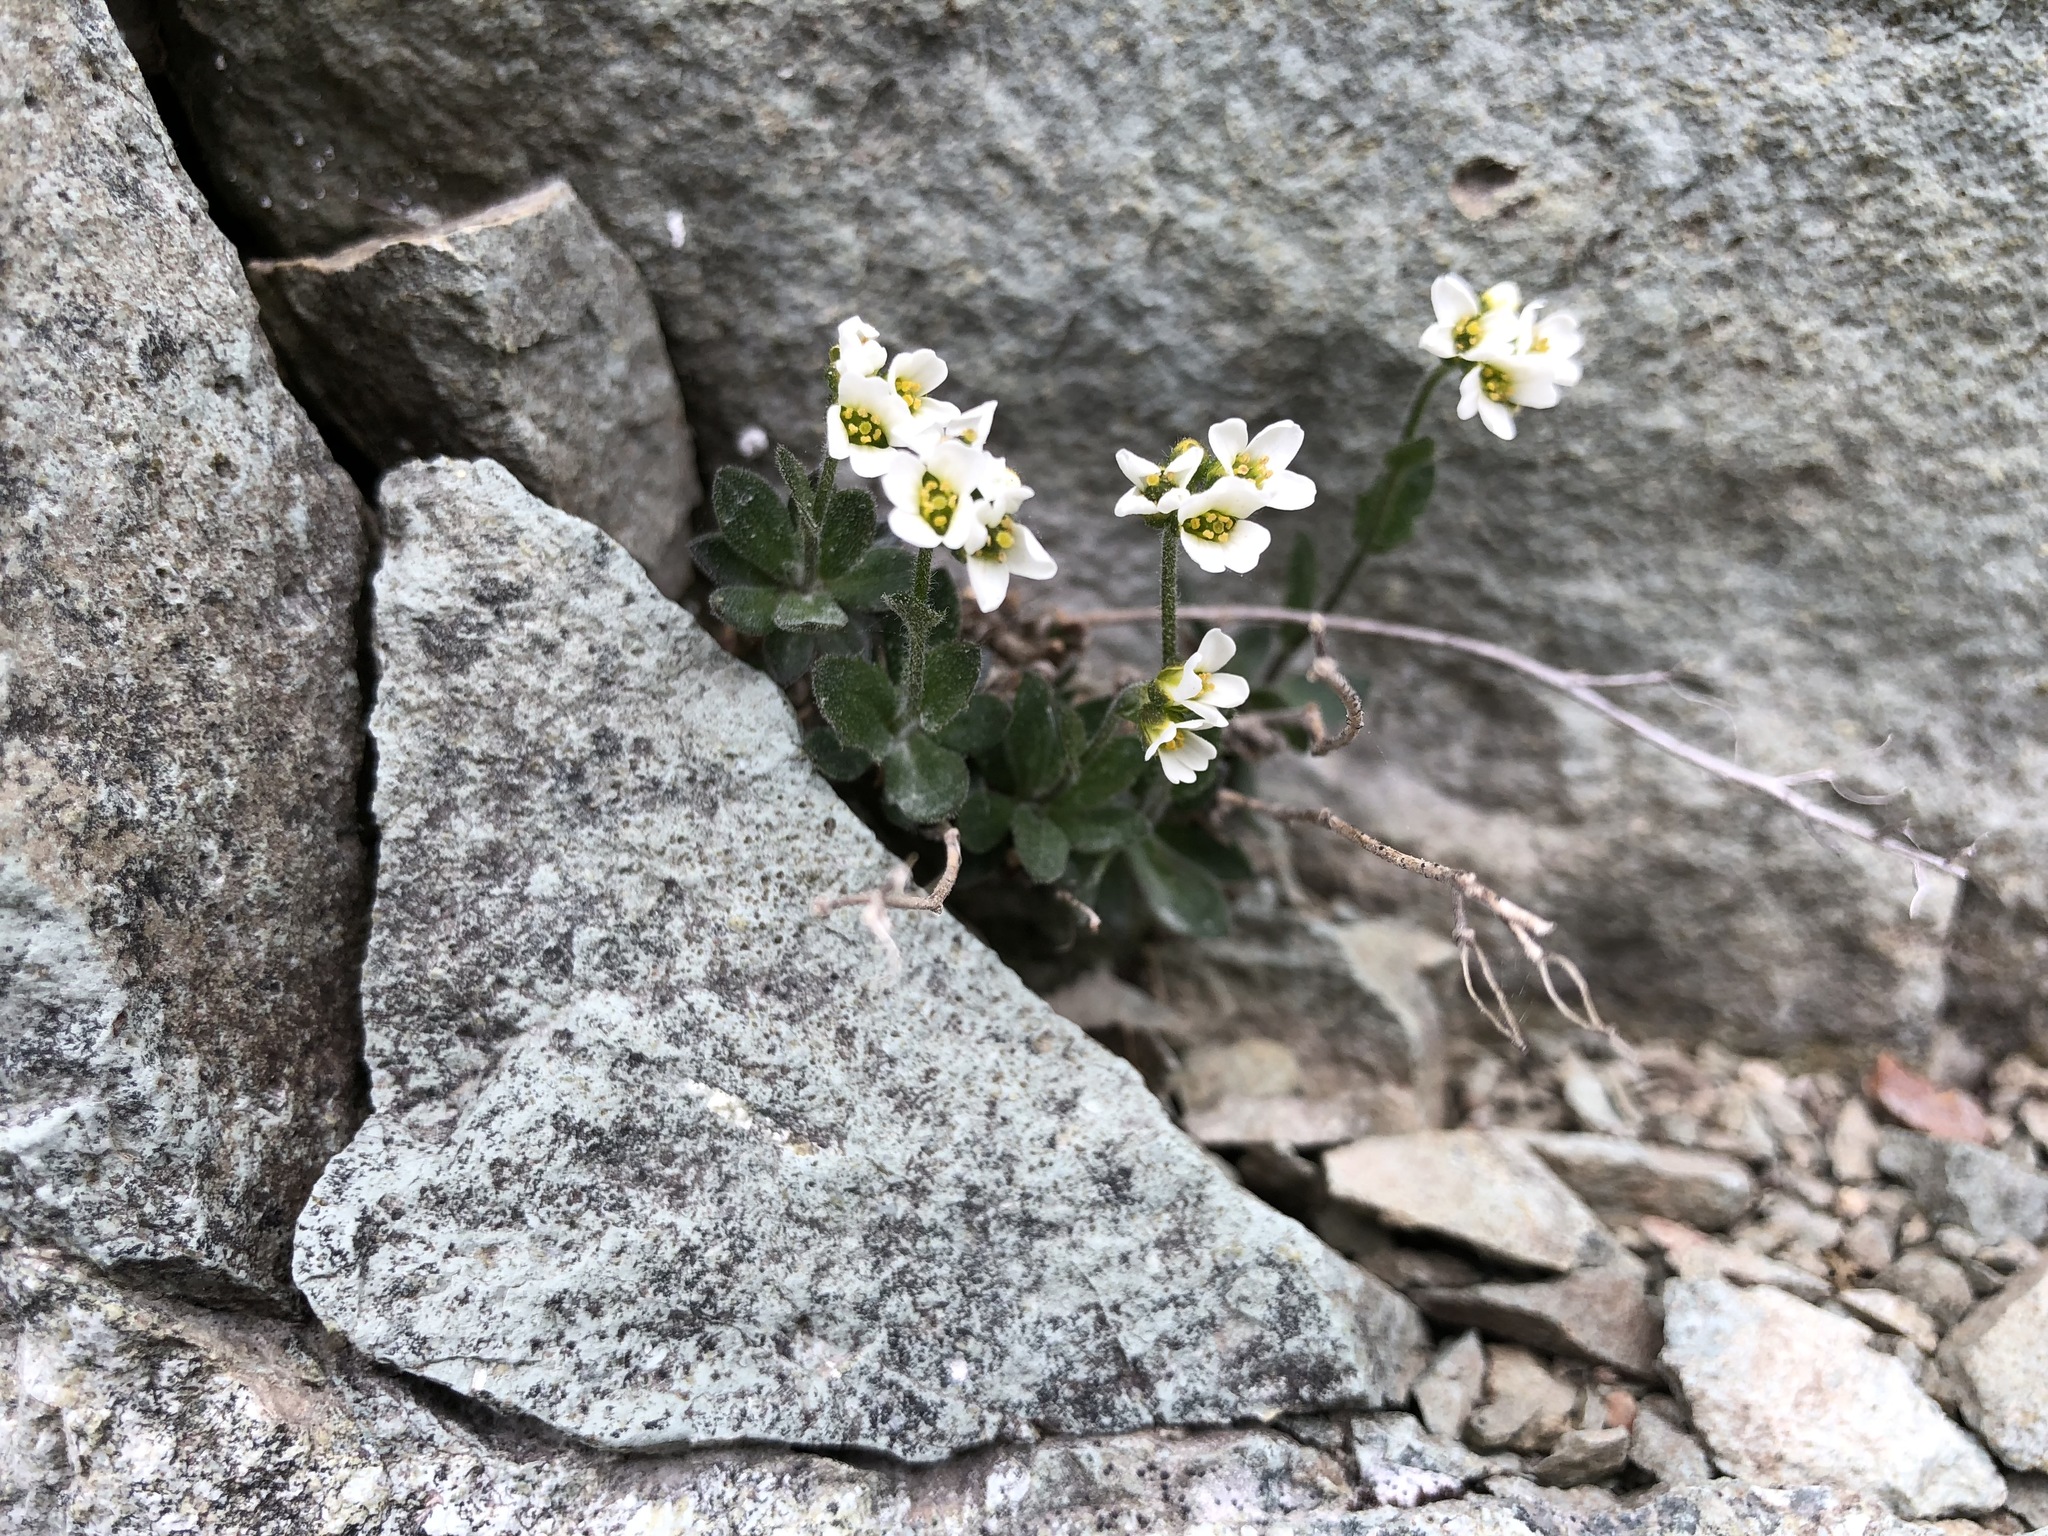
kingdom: Plantae
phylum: Tracheophyta
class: Magnoliopsida
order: Brassicales
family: Brassicaceae
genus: Draba
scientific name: Draba borealis
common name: Boreal draba
